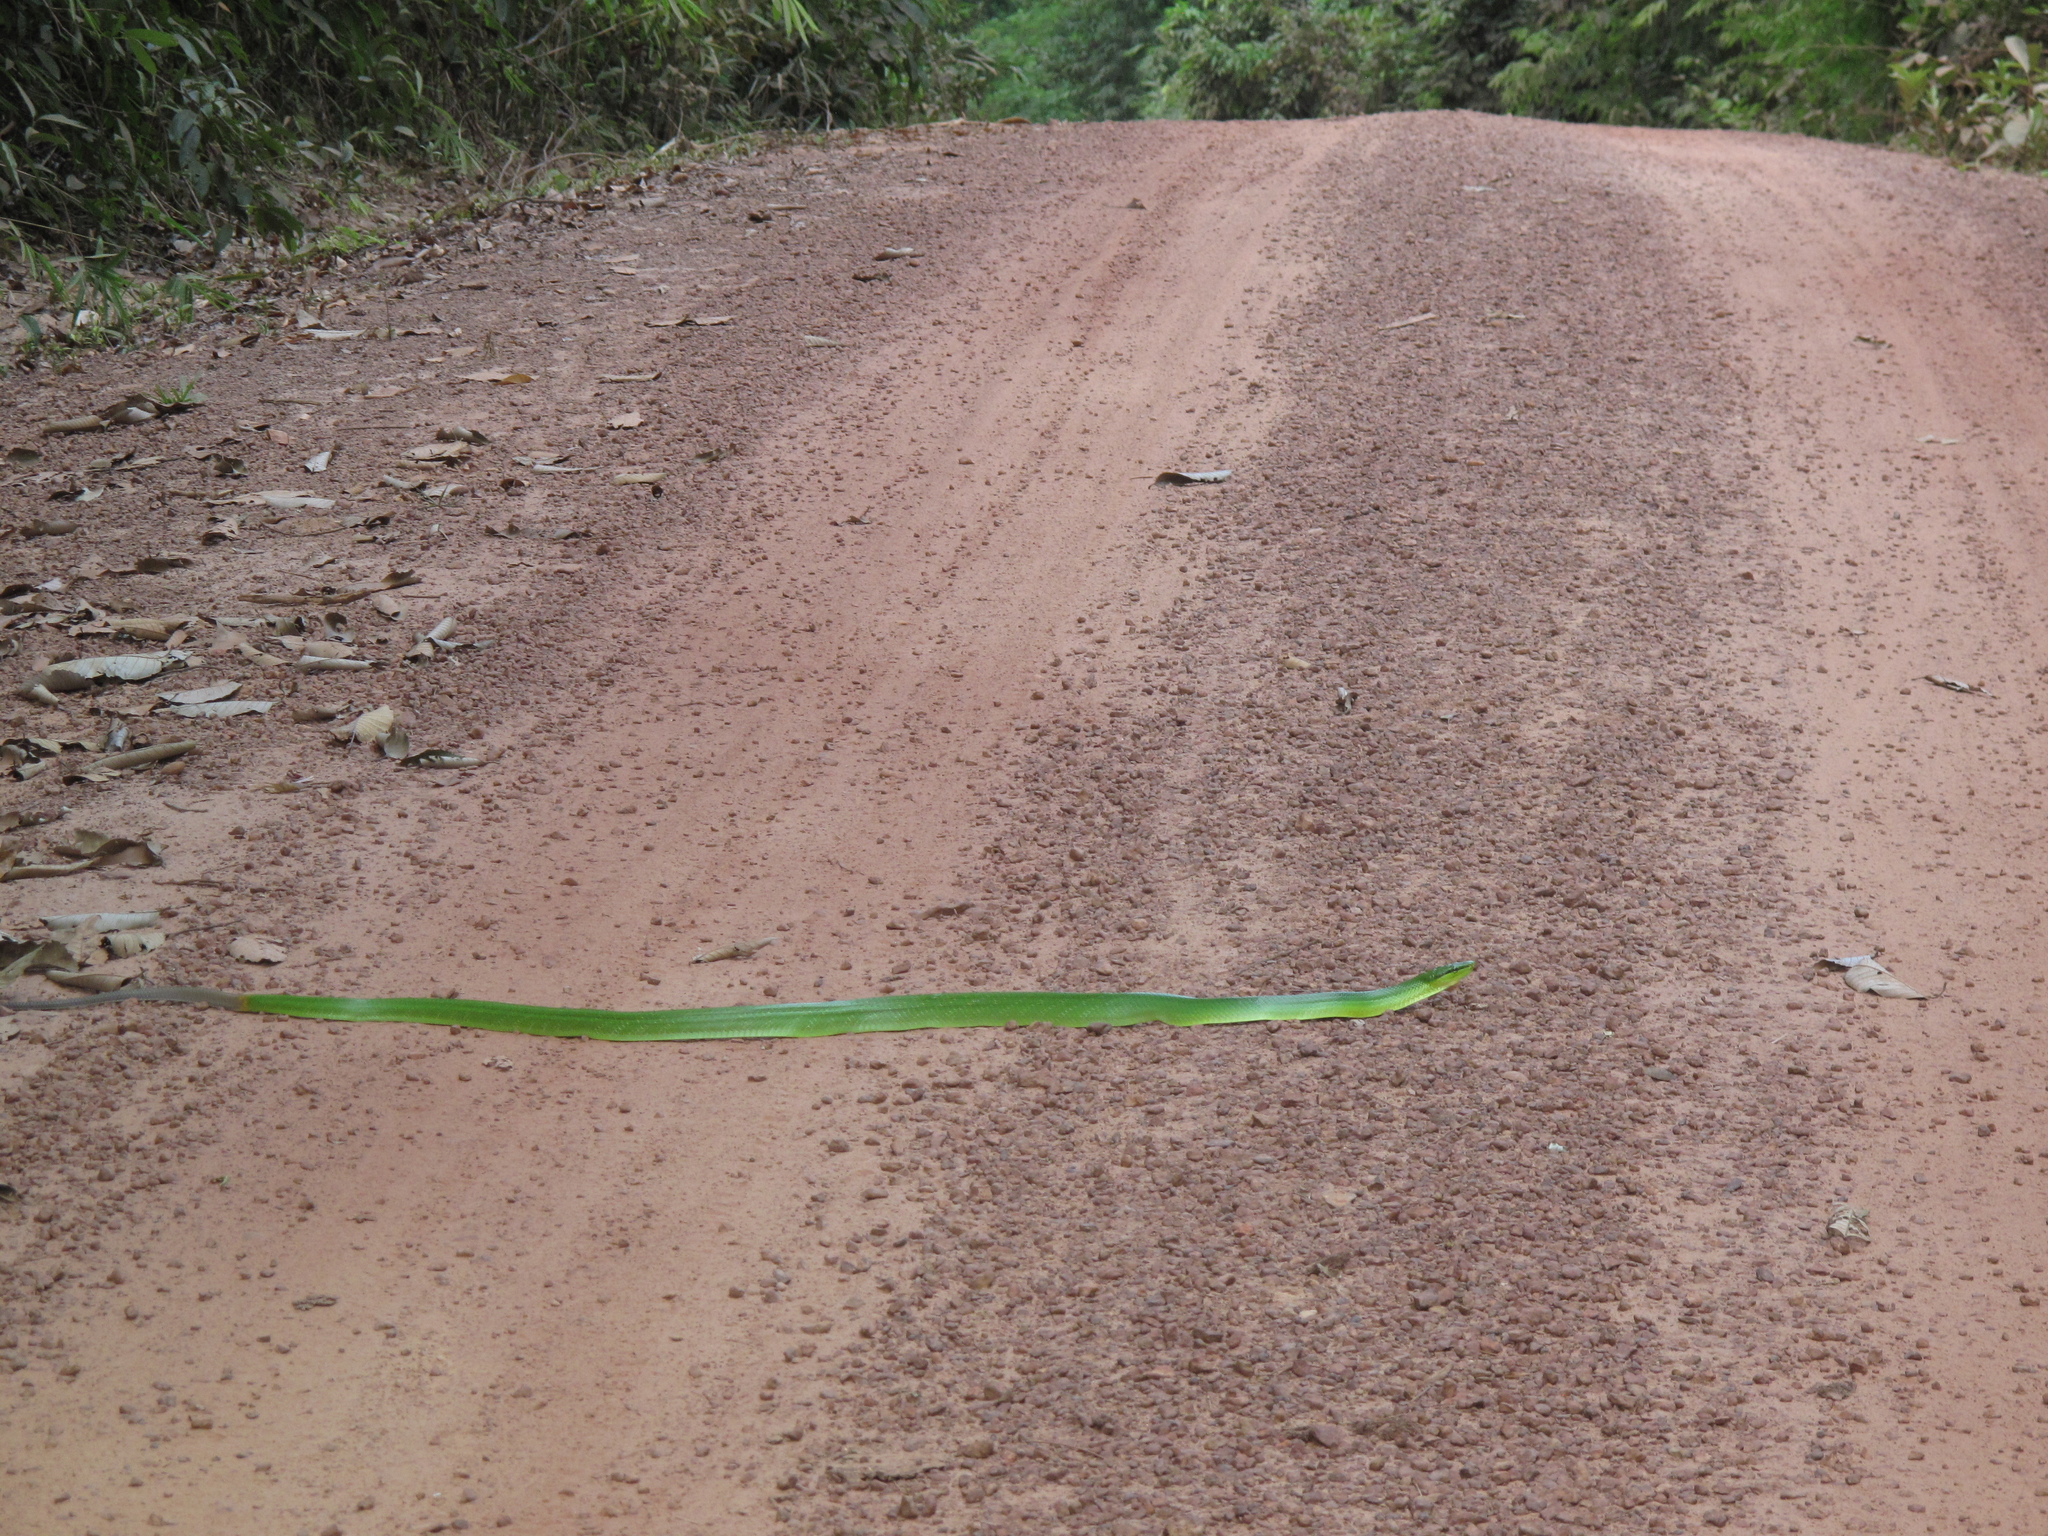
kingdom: Animalia
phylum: Chordata
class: Squamata
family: Colubridae
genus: Gonyosoma
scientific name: Gonyosoma oxycephalum
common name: Red-tailed racer
